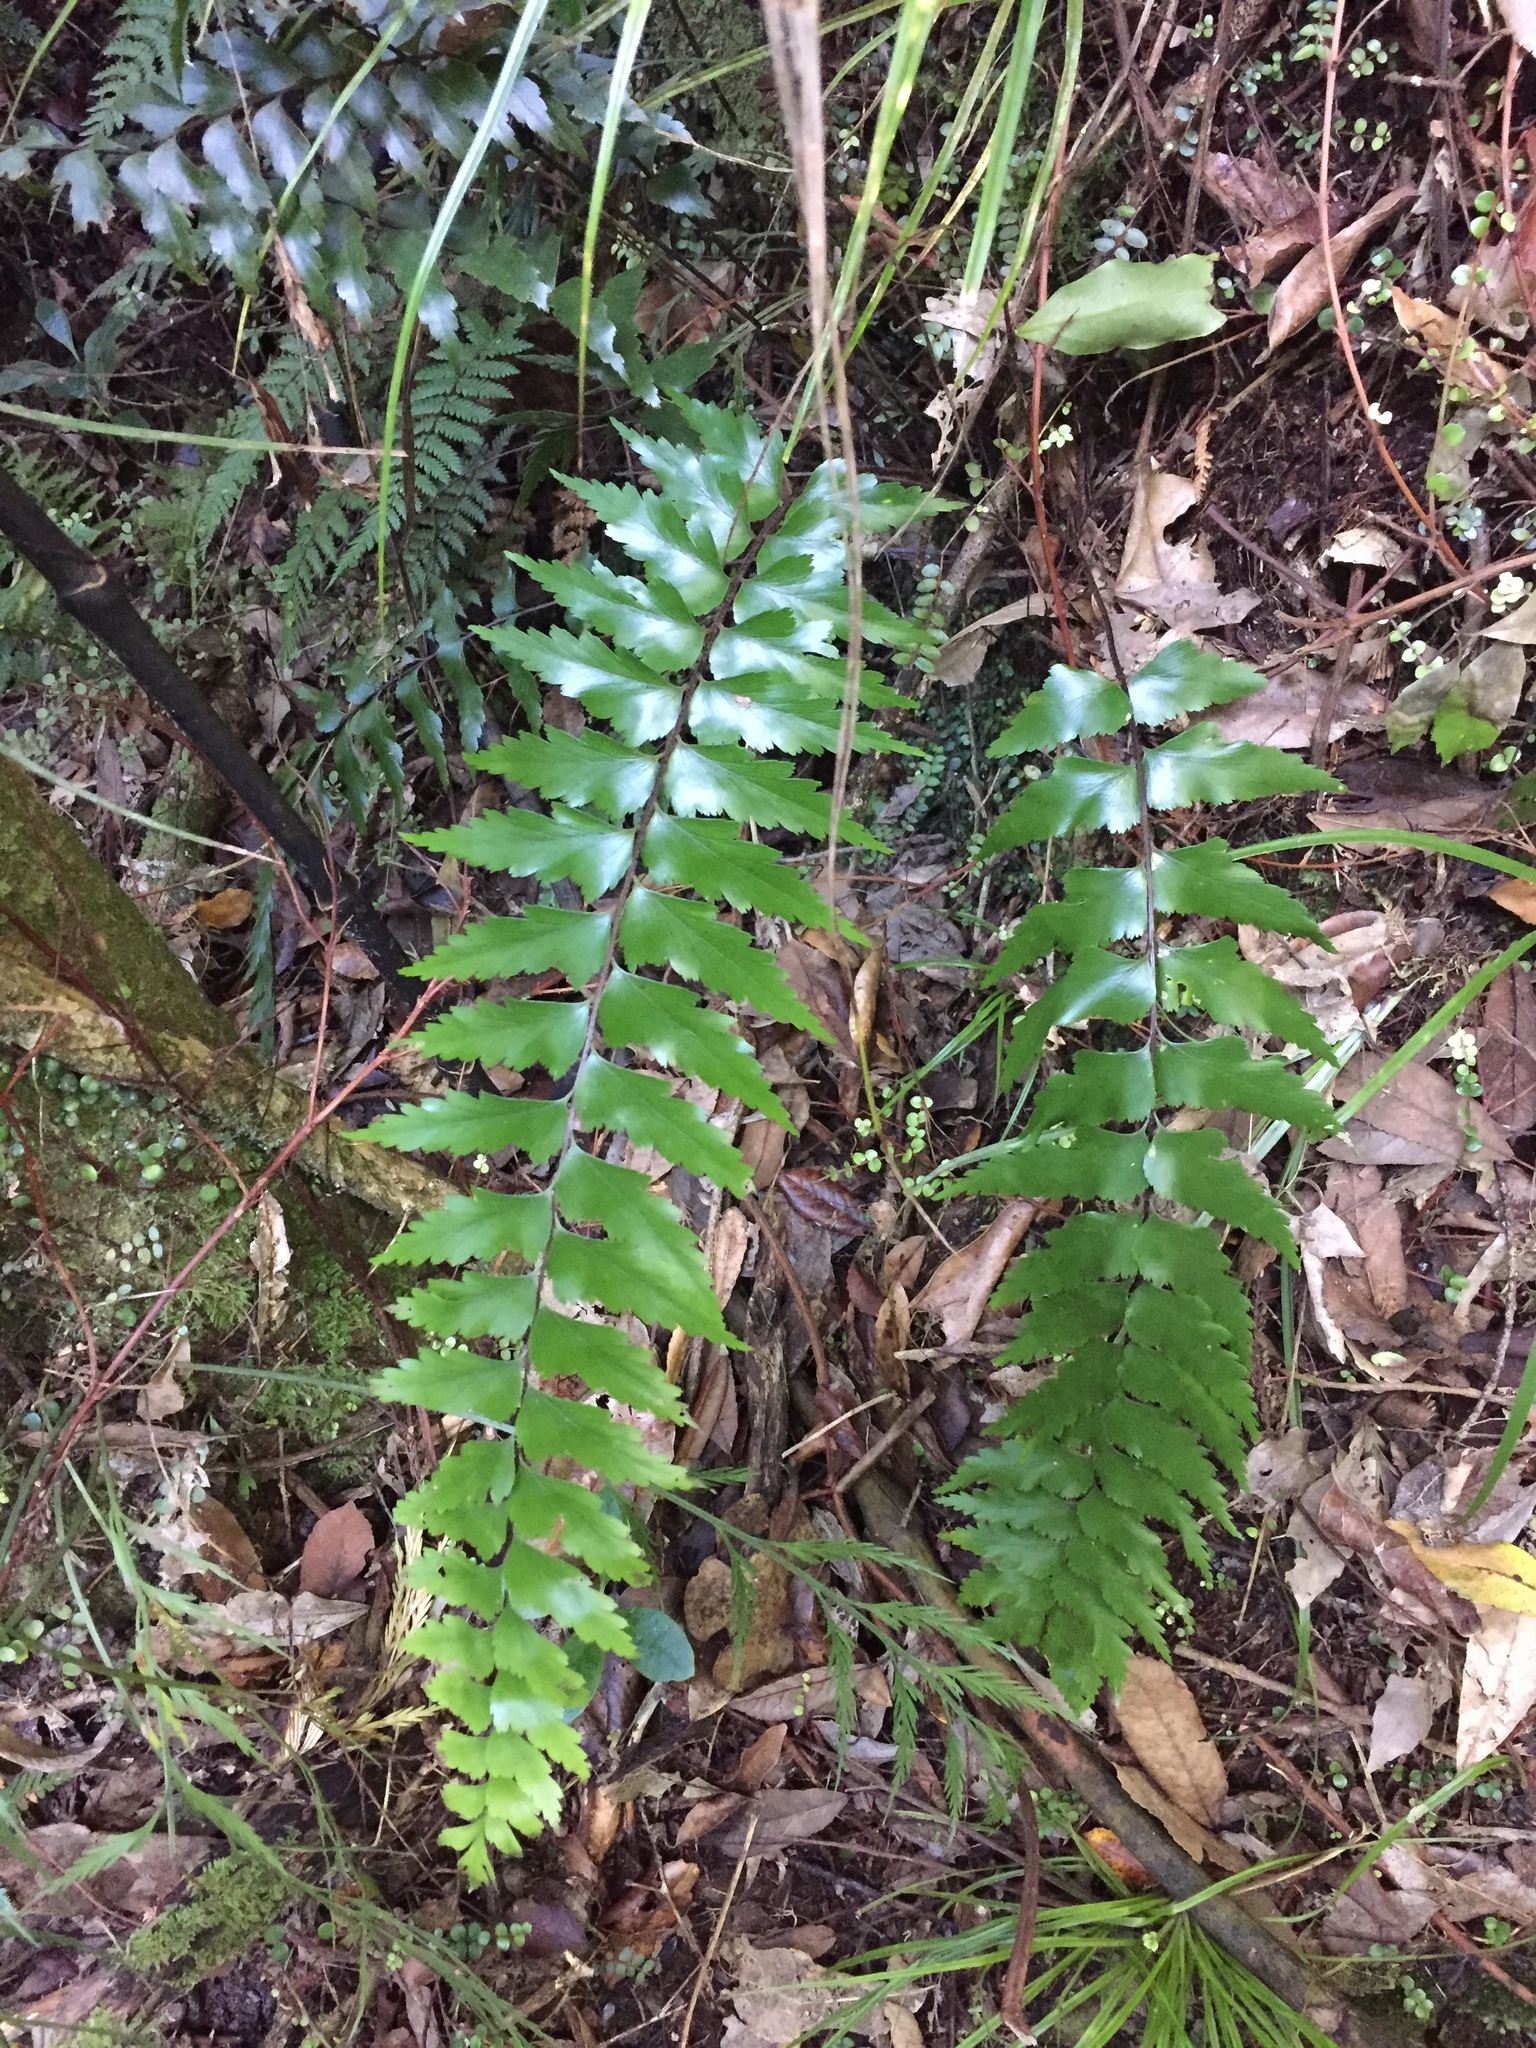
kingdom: Plantae
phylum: Tracheophyta
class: Polypodiopsida
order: Polypodiales
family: Aspleniaceae
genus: Asplenium
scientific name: Asplenium polyodon
